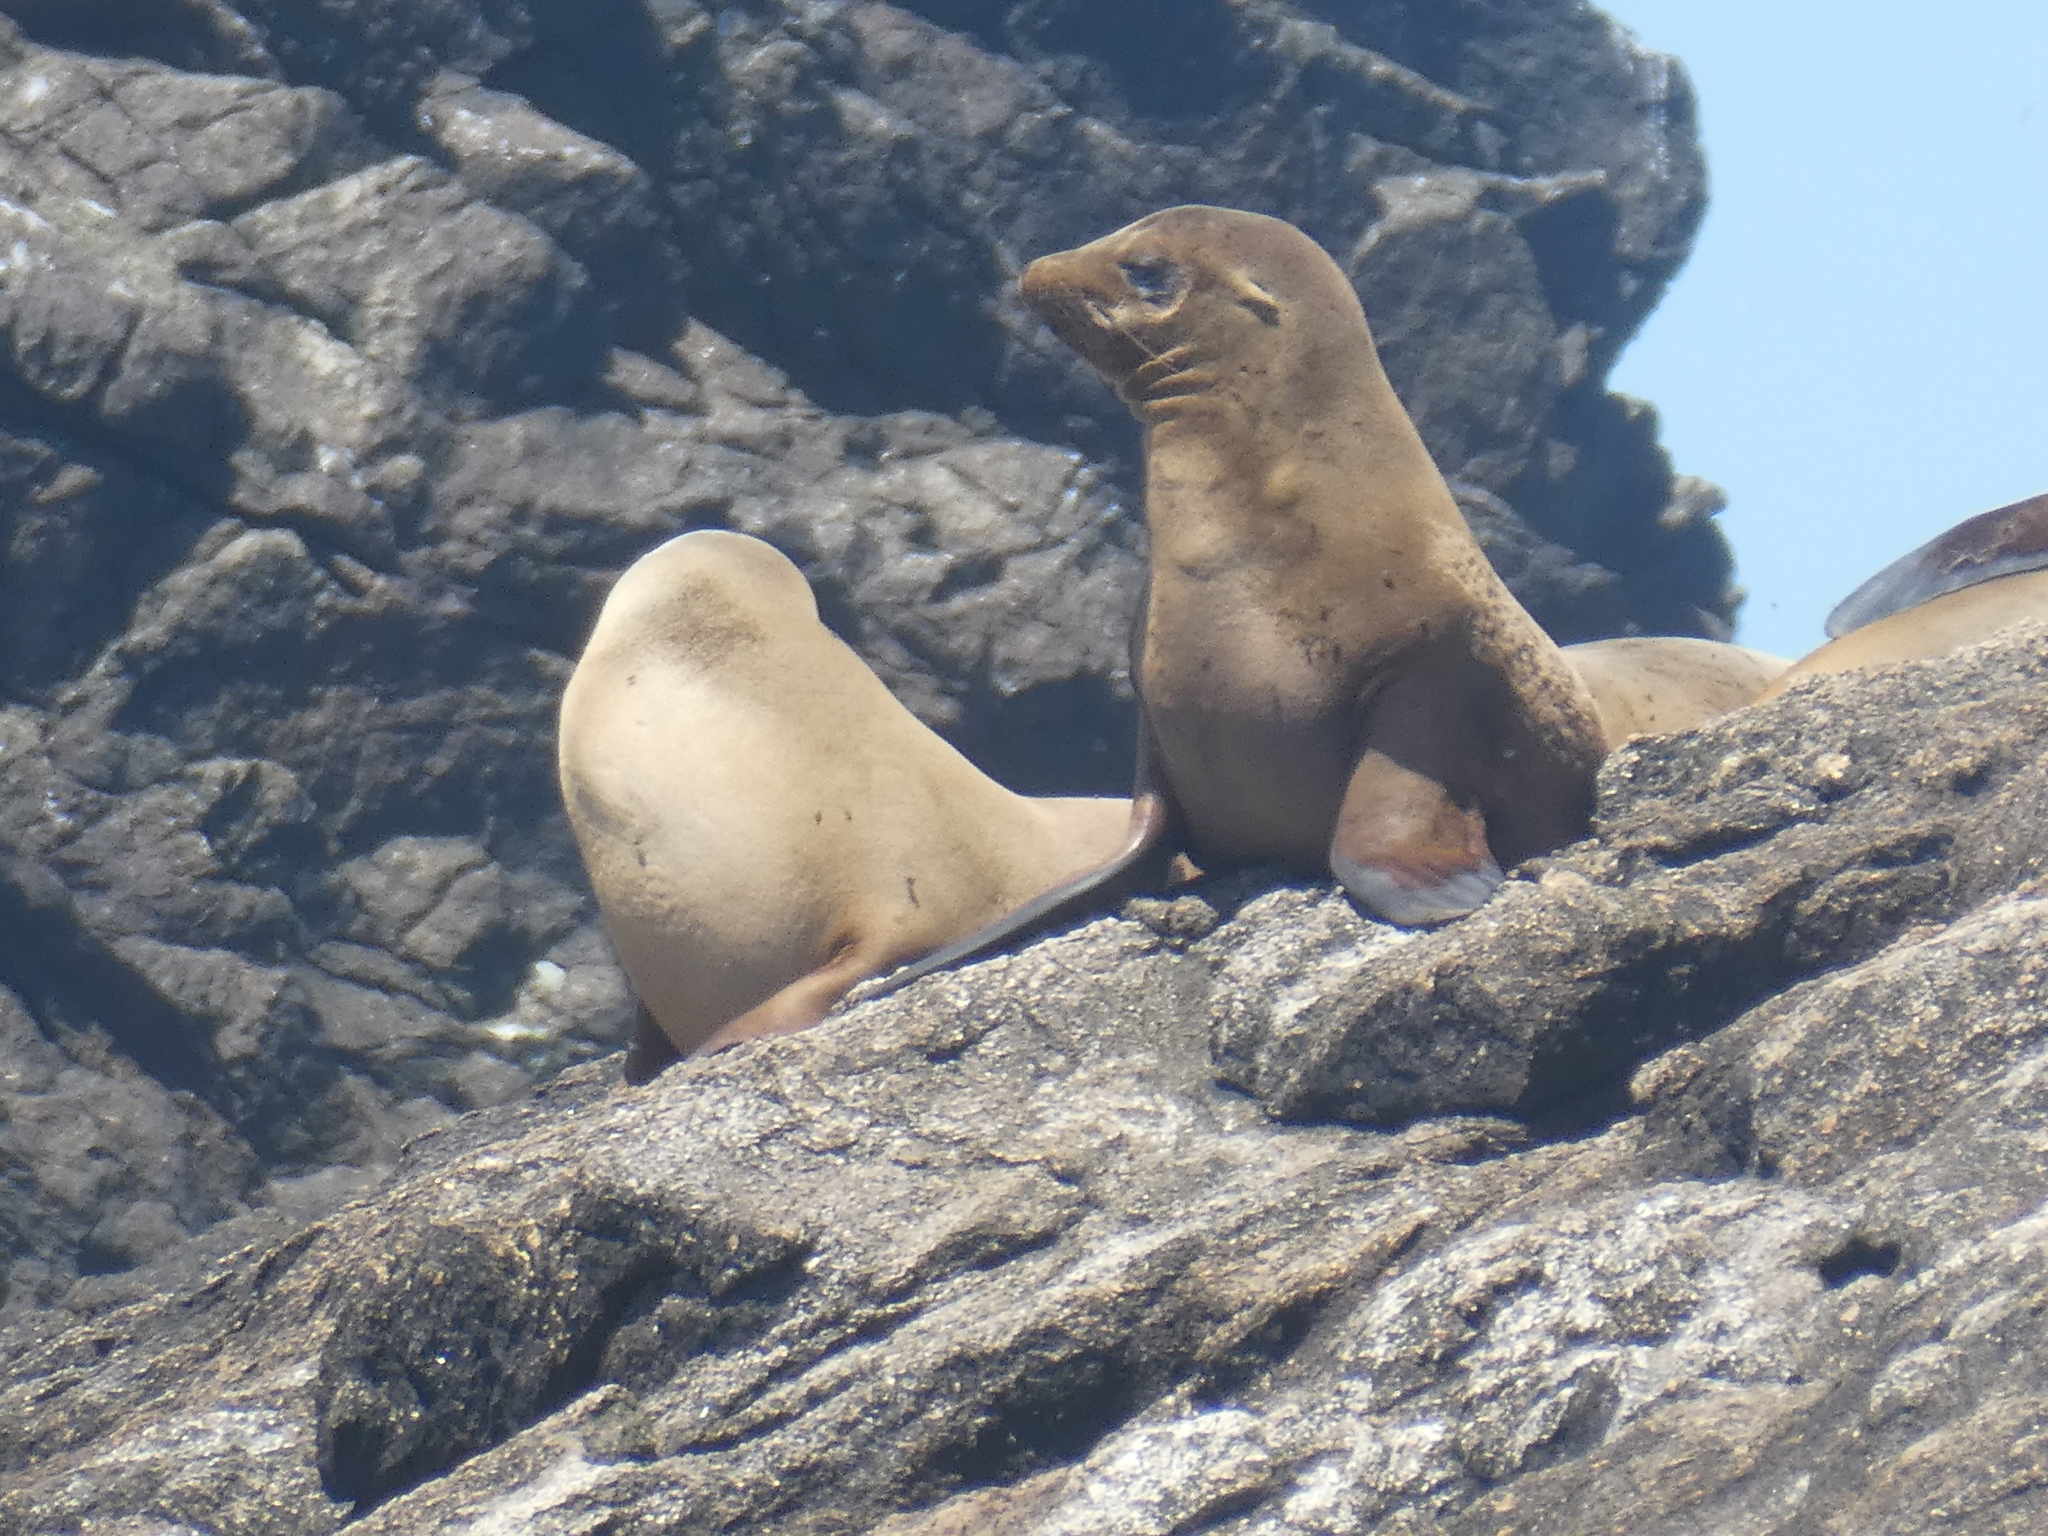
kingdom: Animalia
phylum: Chordata
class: Mammalia
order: Carnivora
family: Otariidae
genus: Zalophus
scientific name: Zalophus californianus
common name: California sea lion
